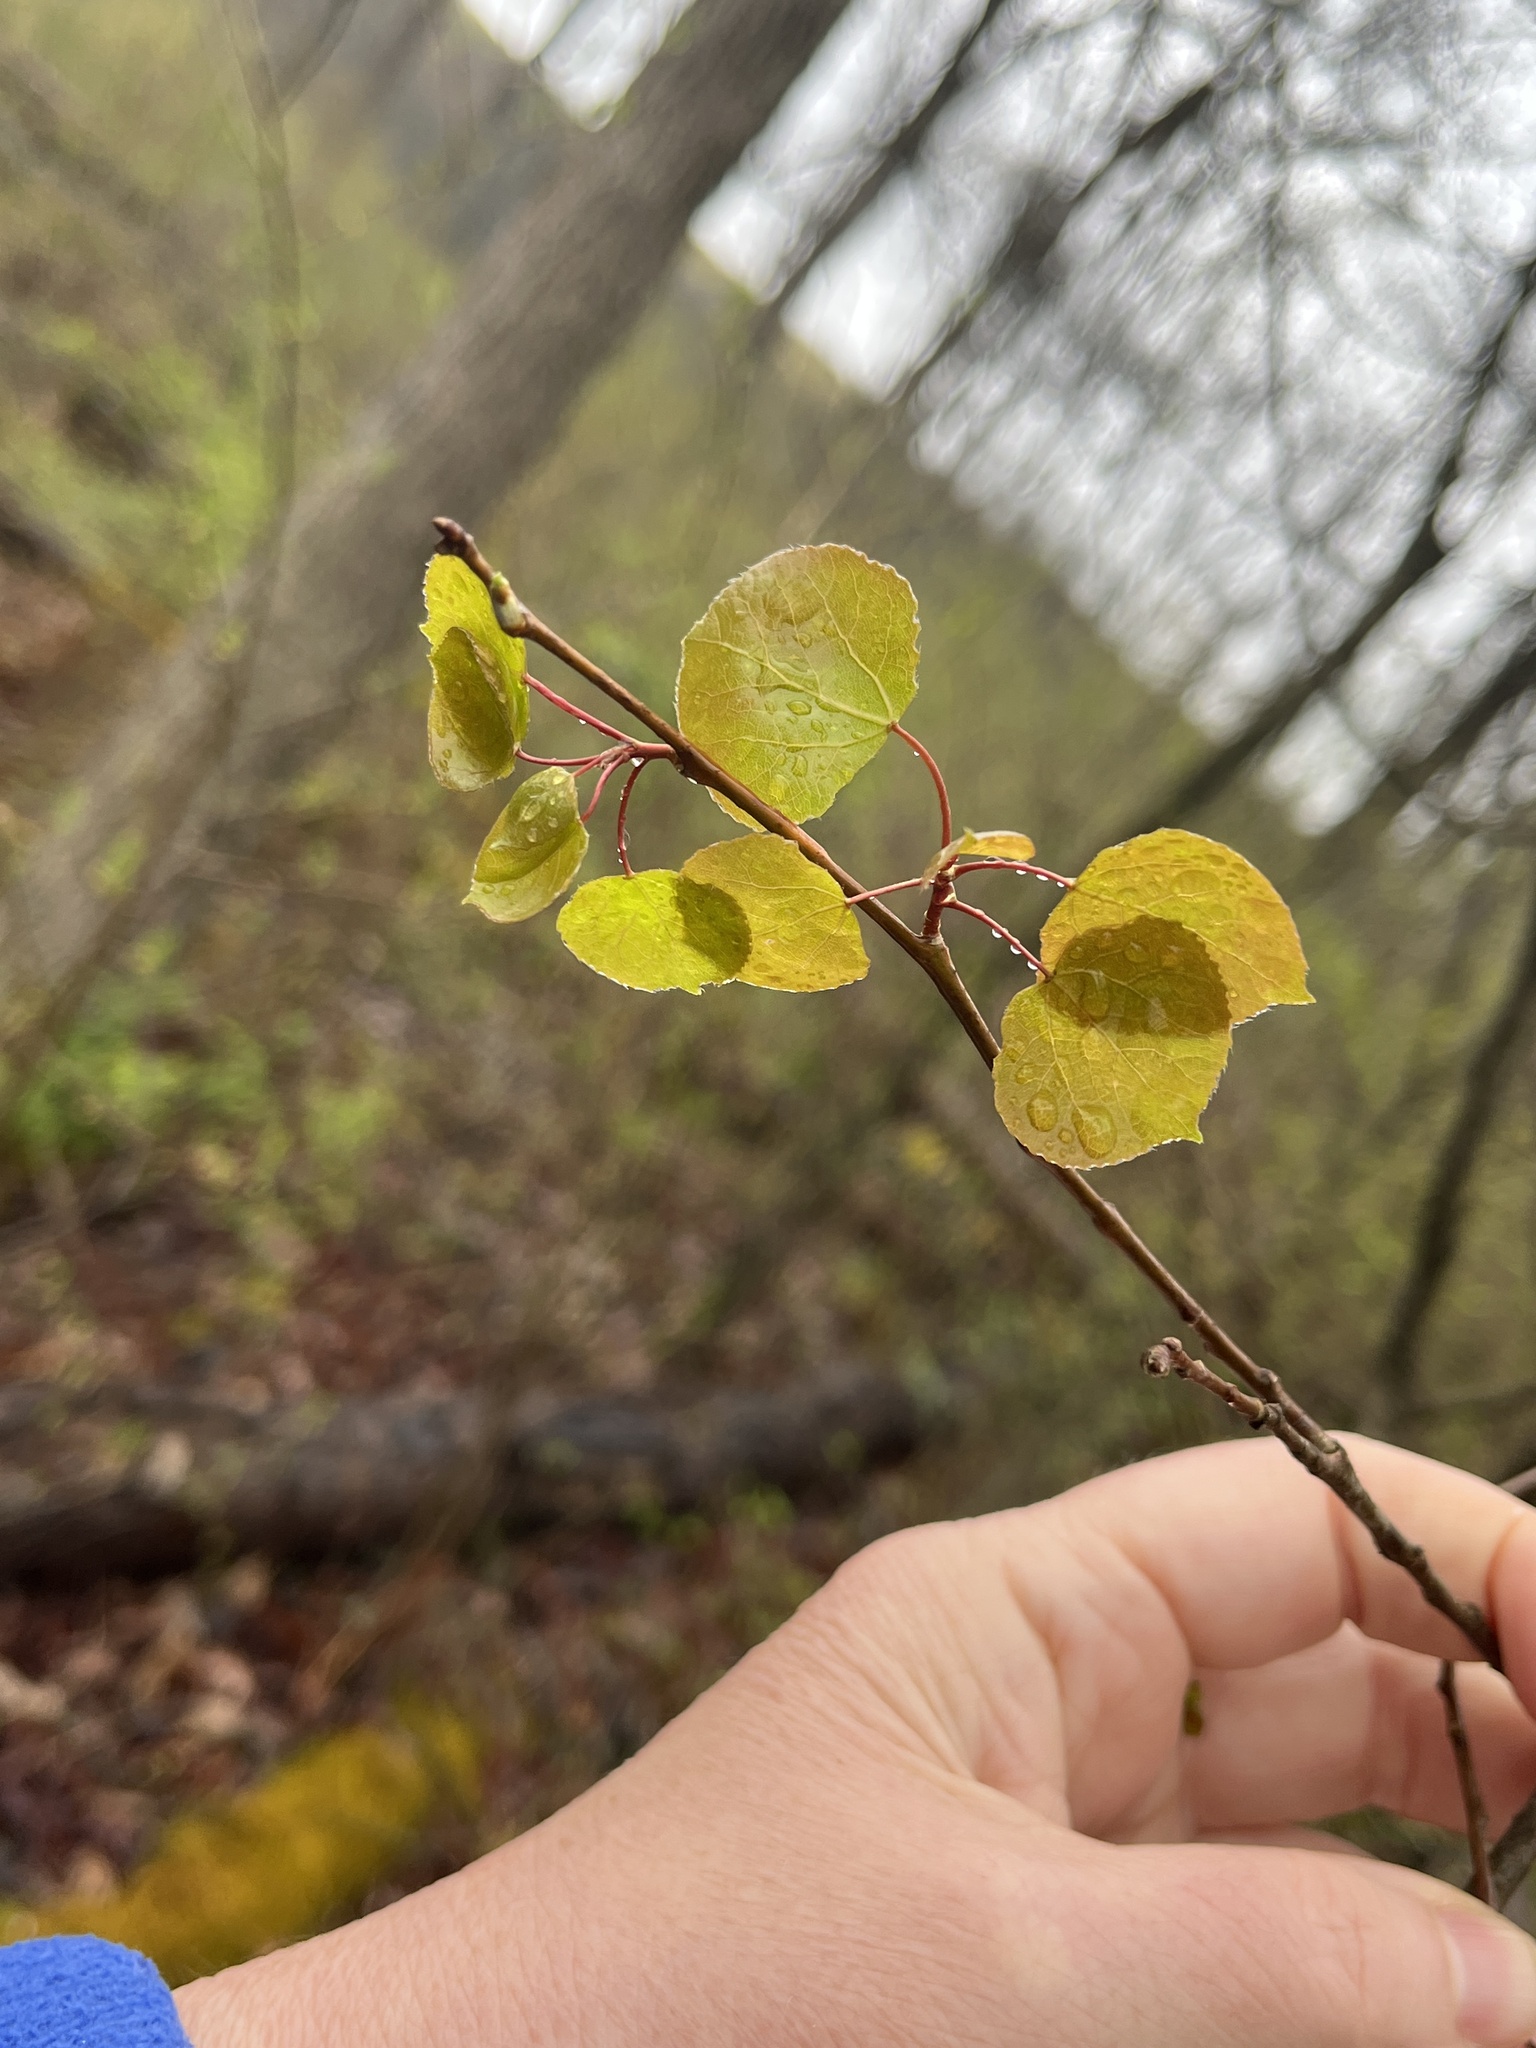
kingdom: Plantae
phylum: Tracheophyta
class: Magnoliopsida
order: Malpighiales
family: Salicaceae
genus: Populus
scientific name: Populus tremuloides
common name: Quaking aspen
